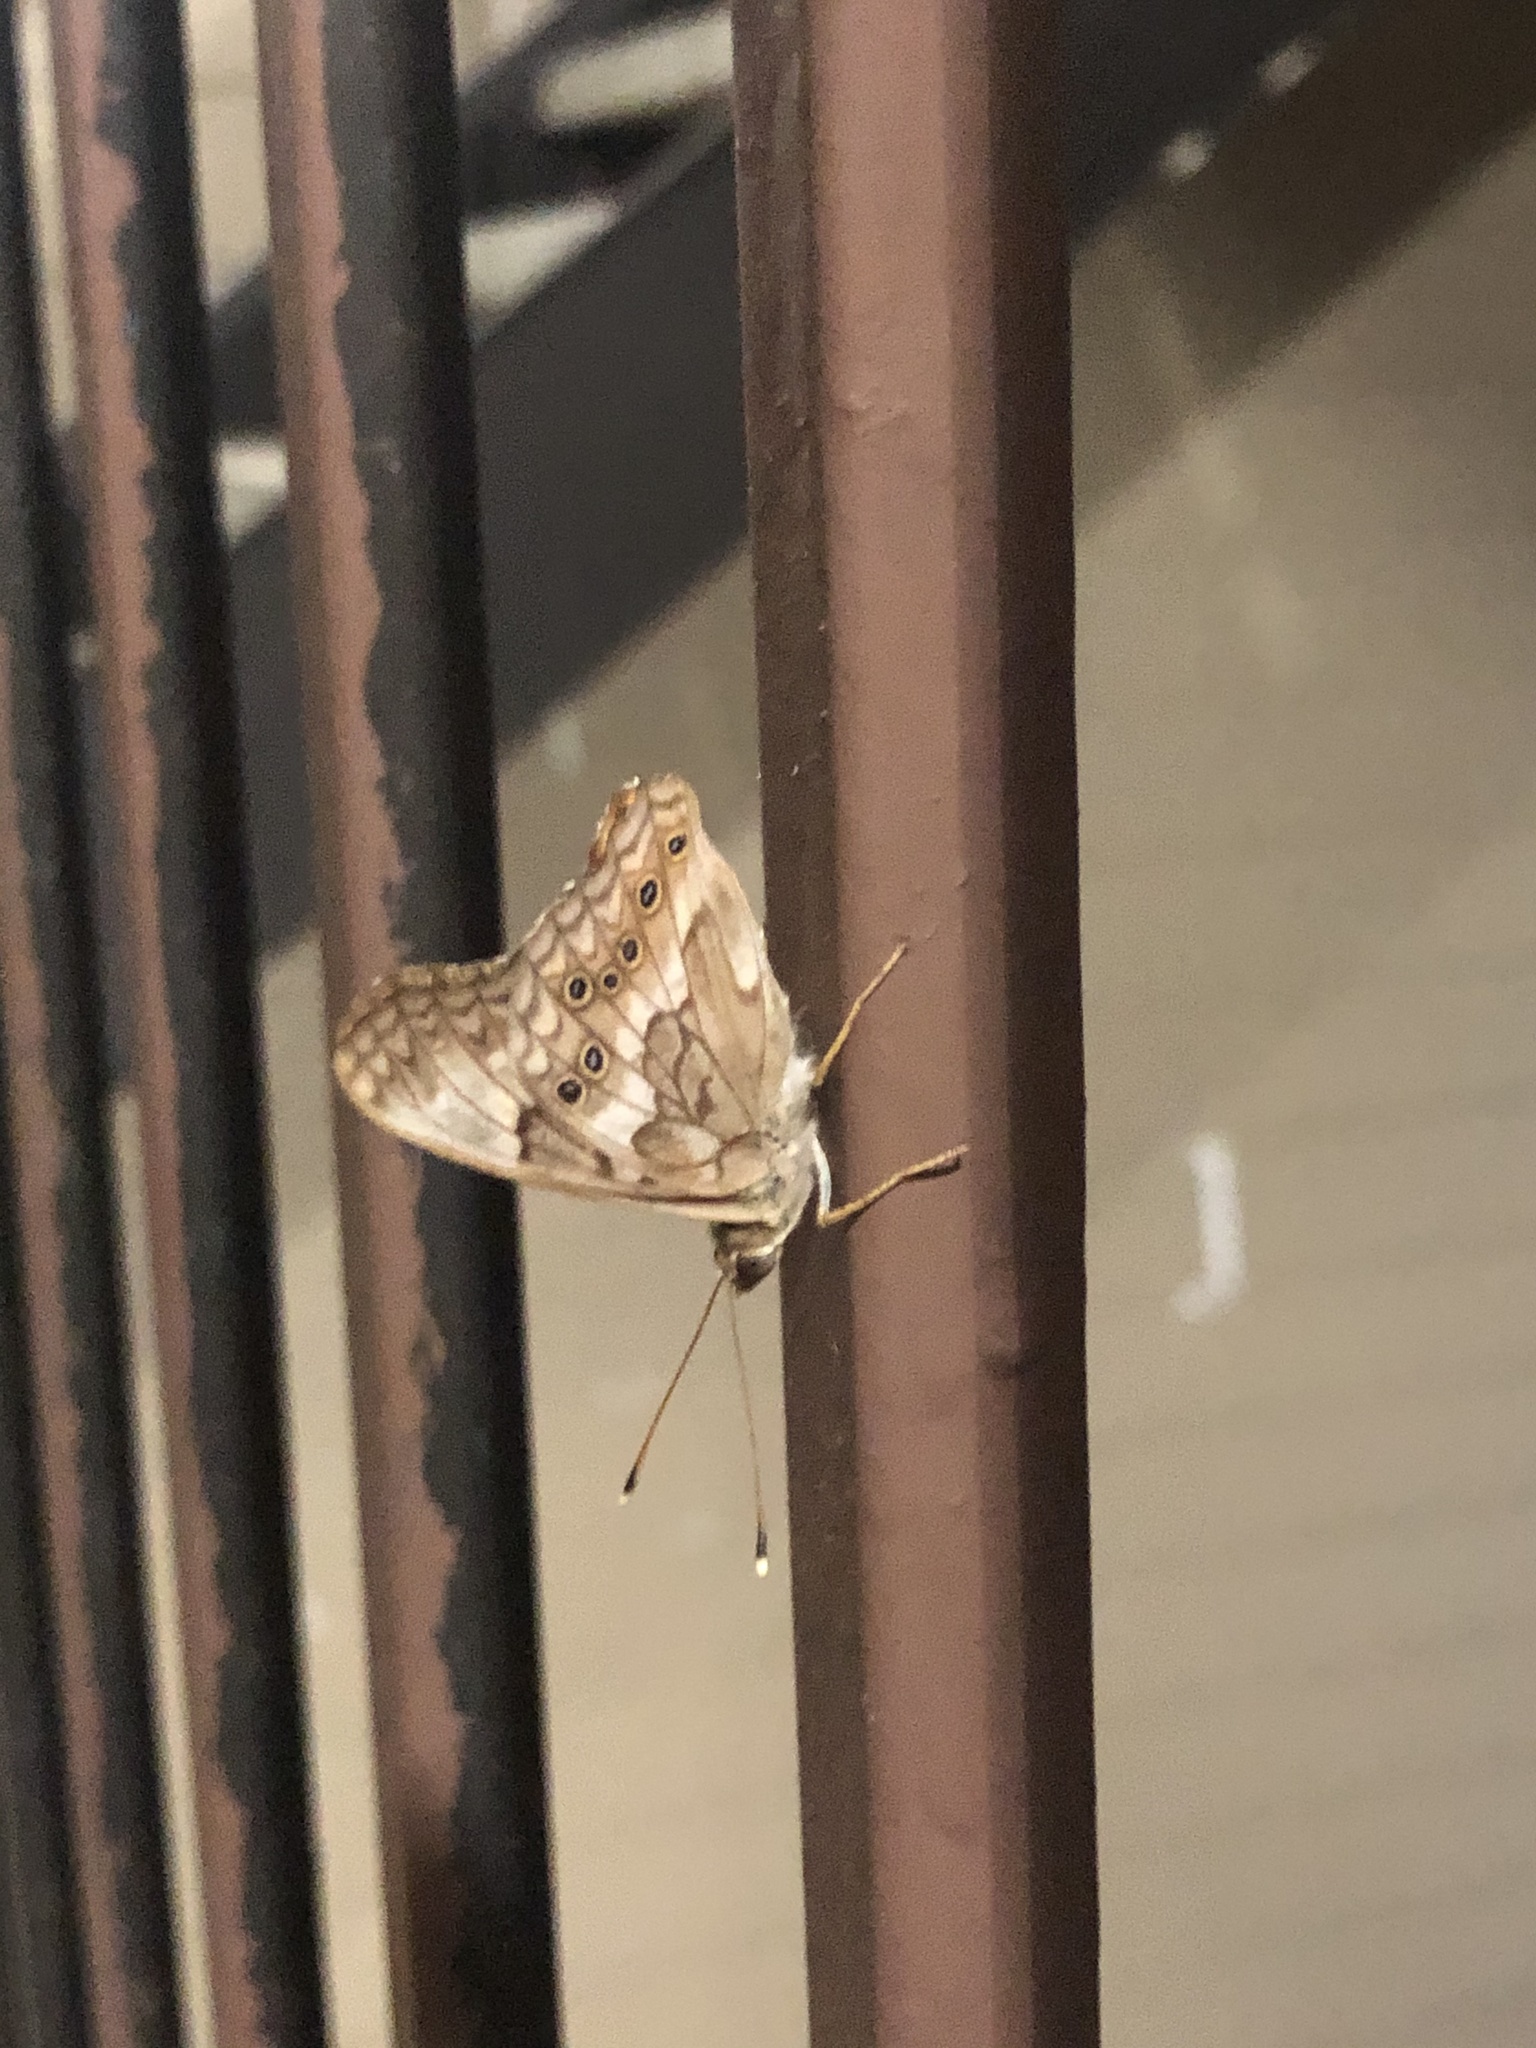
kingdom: Animalia
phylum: Arthropoda
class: Insecta
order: Lepidoptera
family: Nymphalidae
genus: Asterocampa
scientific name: Asterocampa clyton
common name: Tawny emperor
